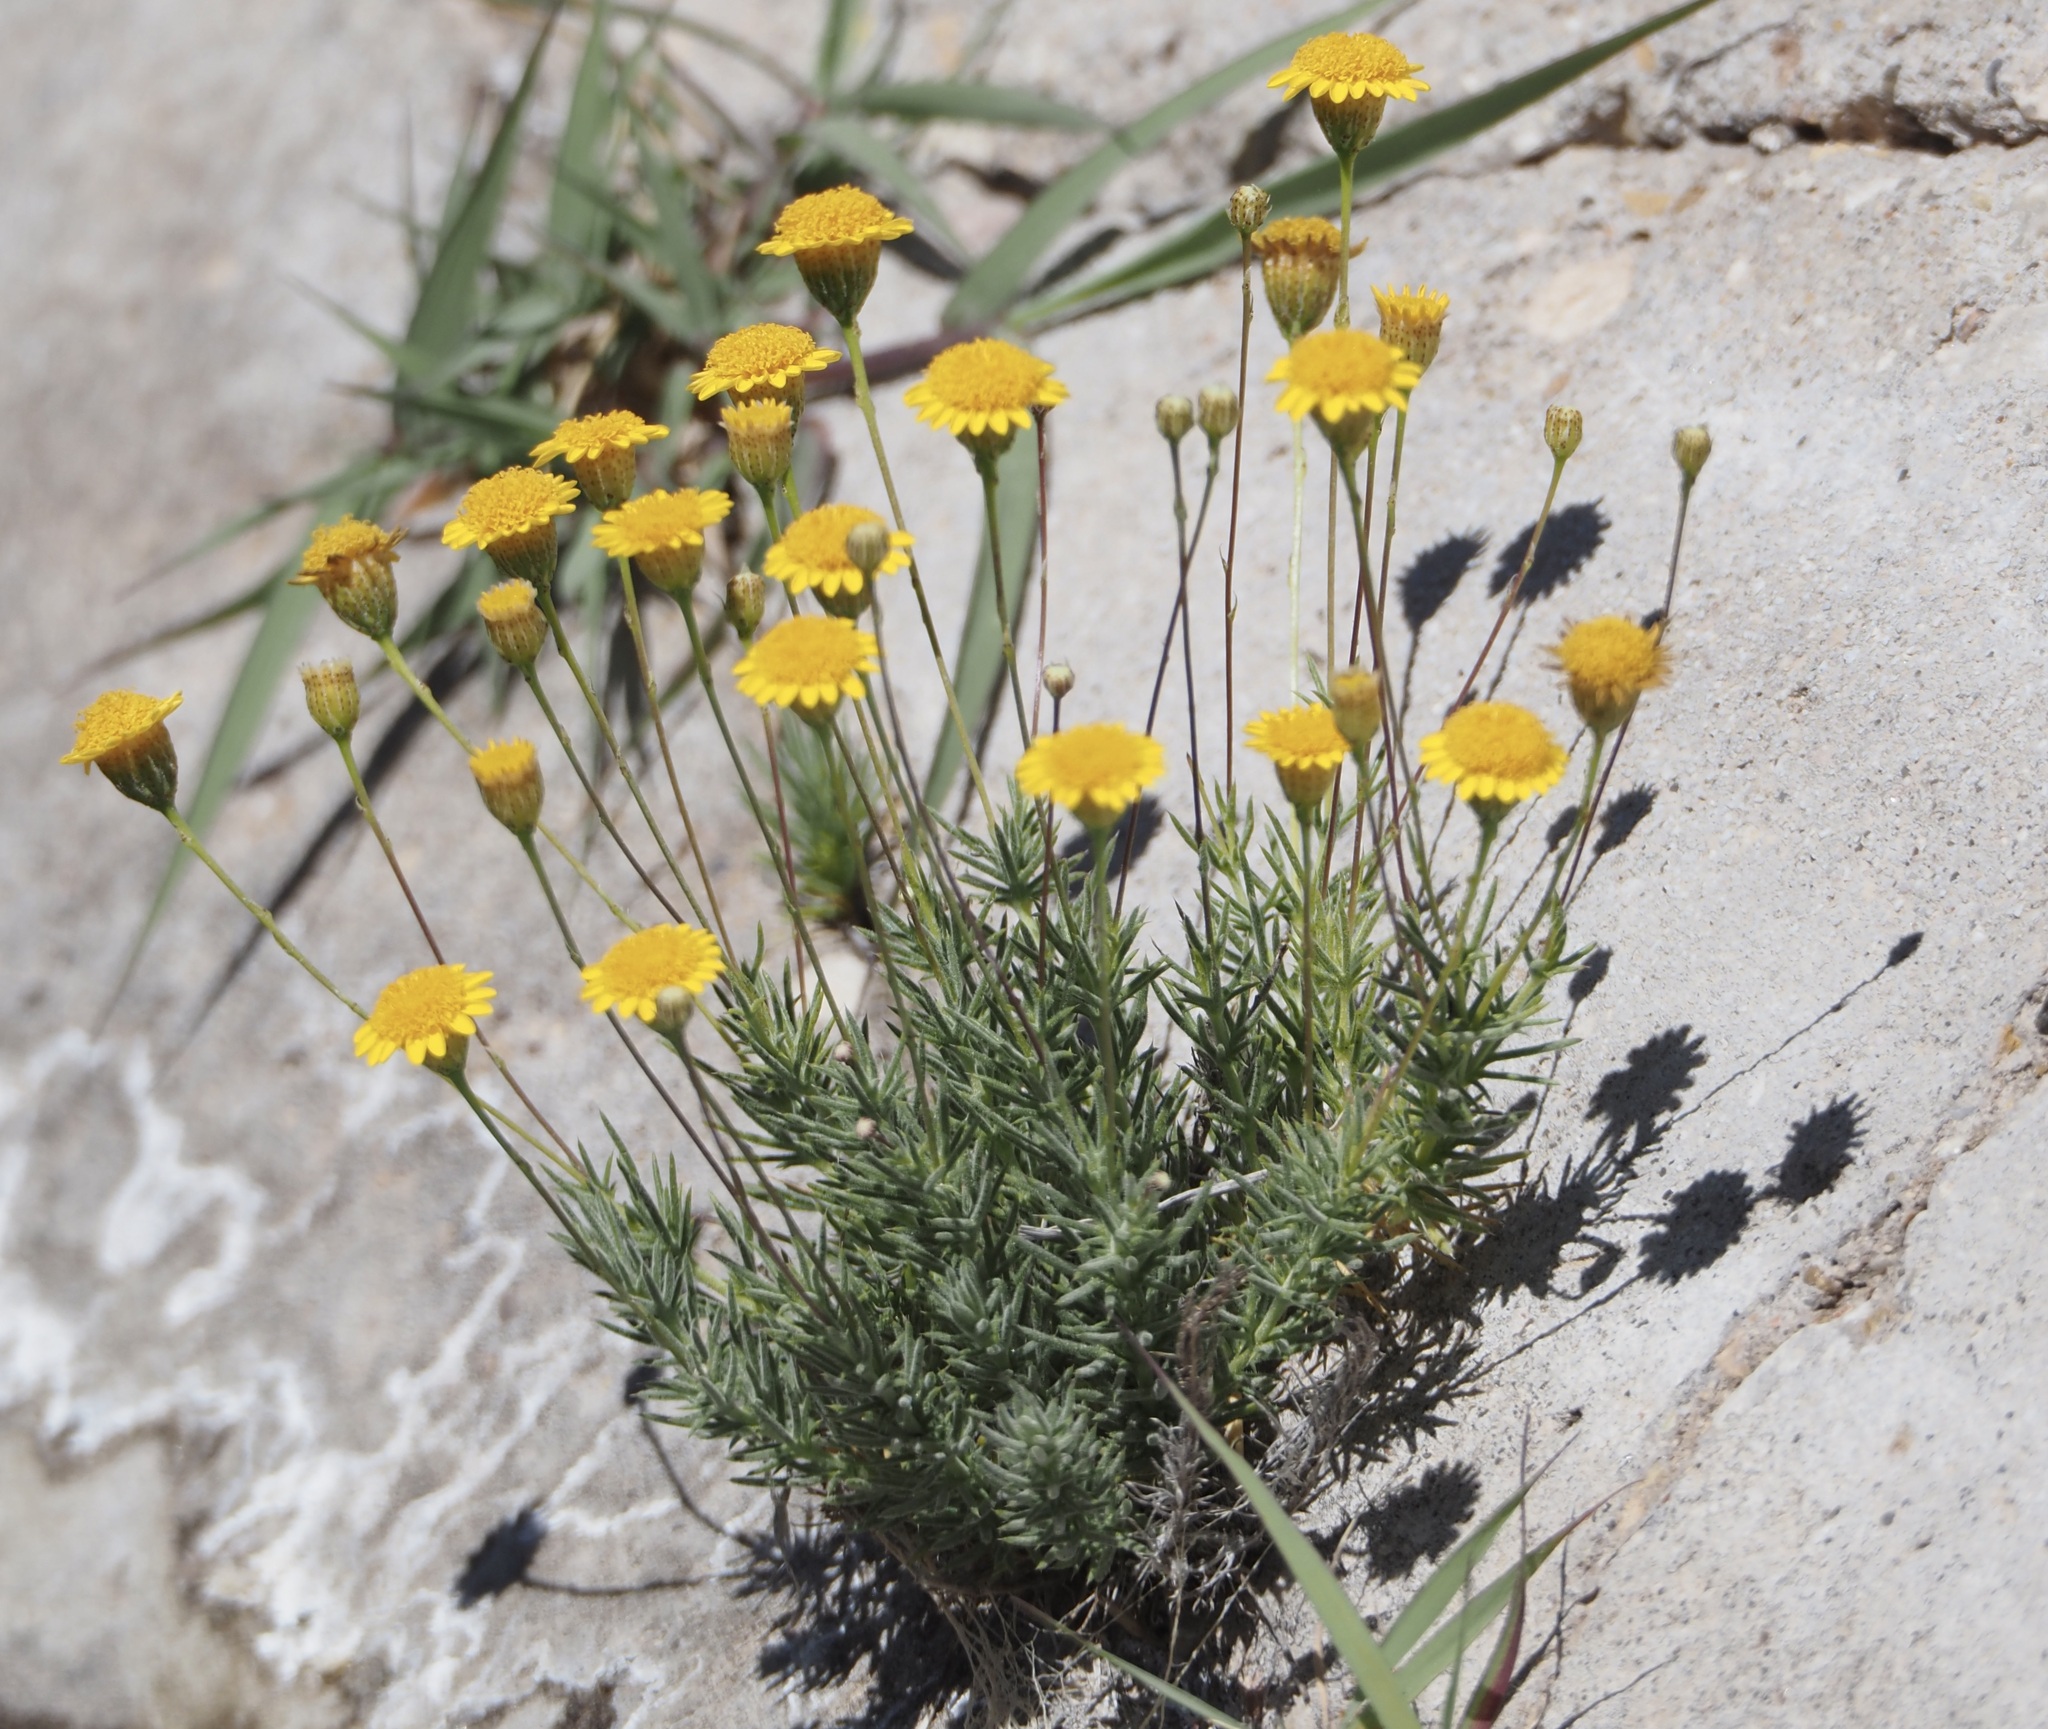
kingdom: Plantae
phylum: Tracheophyta
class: Magnoliopsida
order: Asterales
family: Asteraceae
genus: Thymophylla
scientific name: Thymophylla pentachaeta
